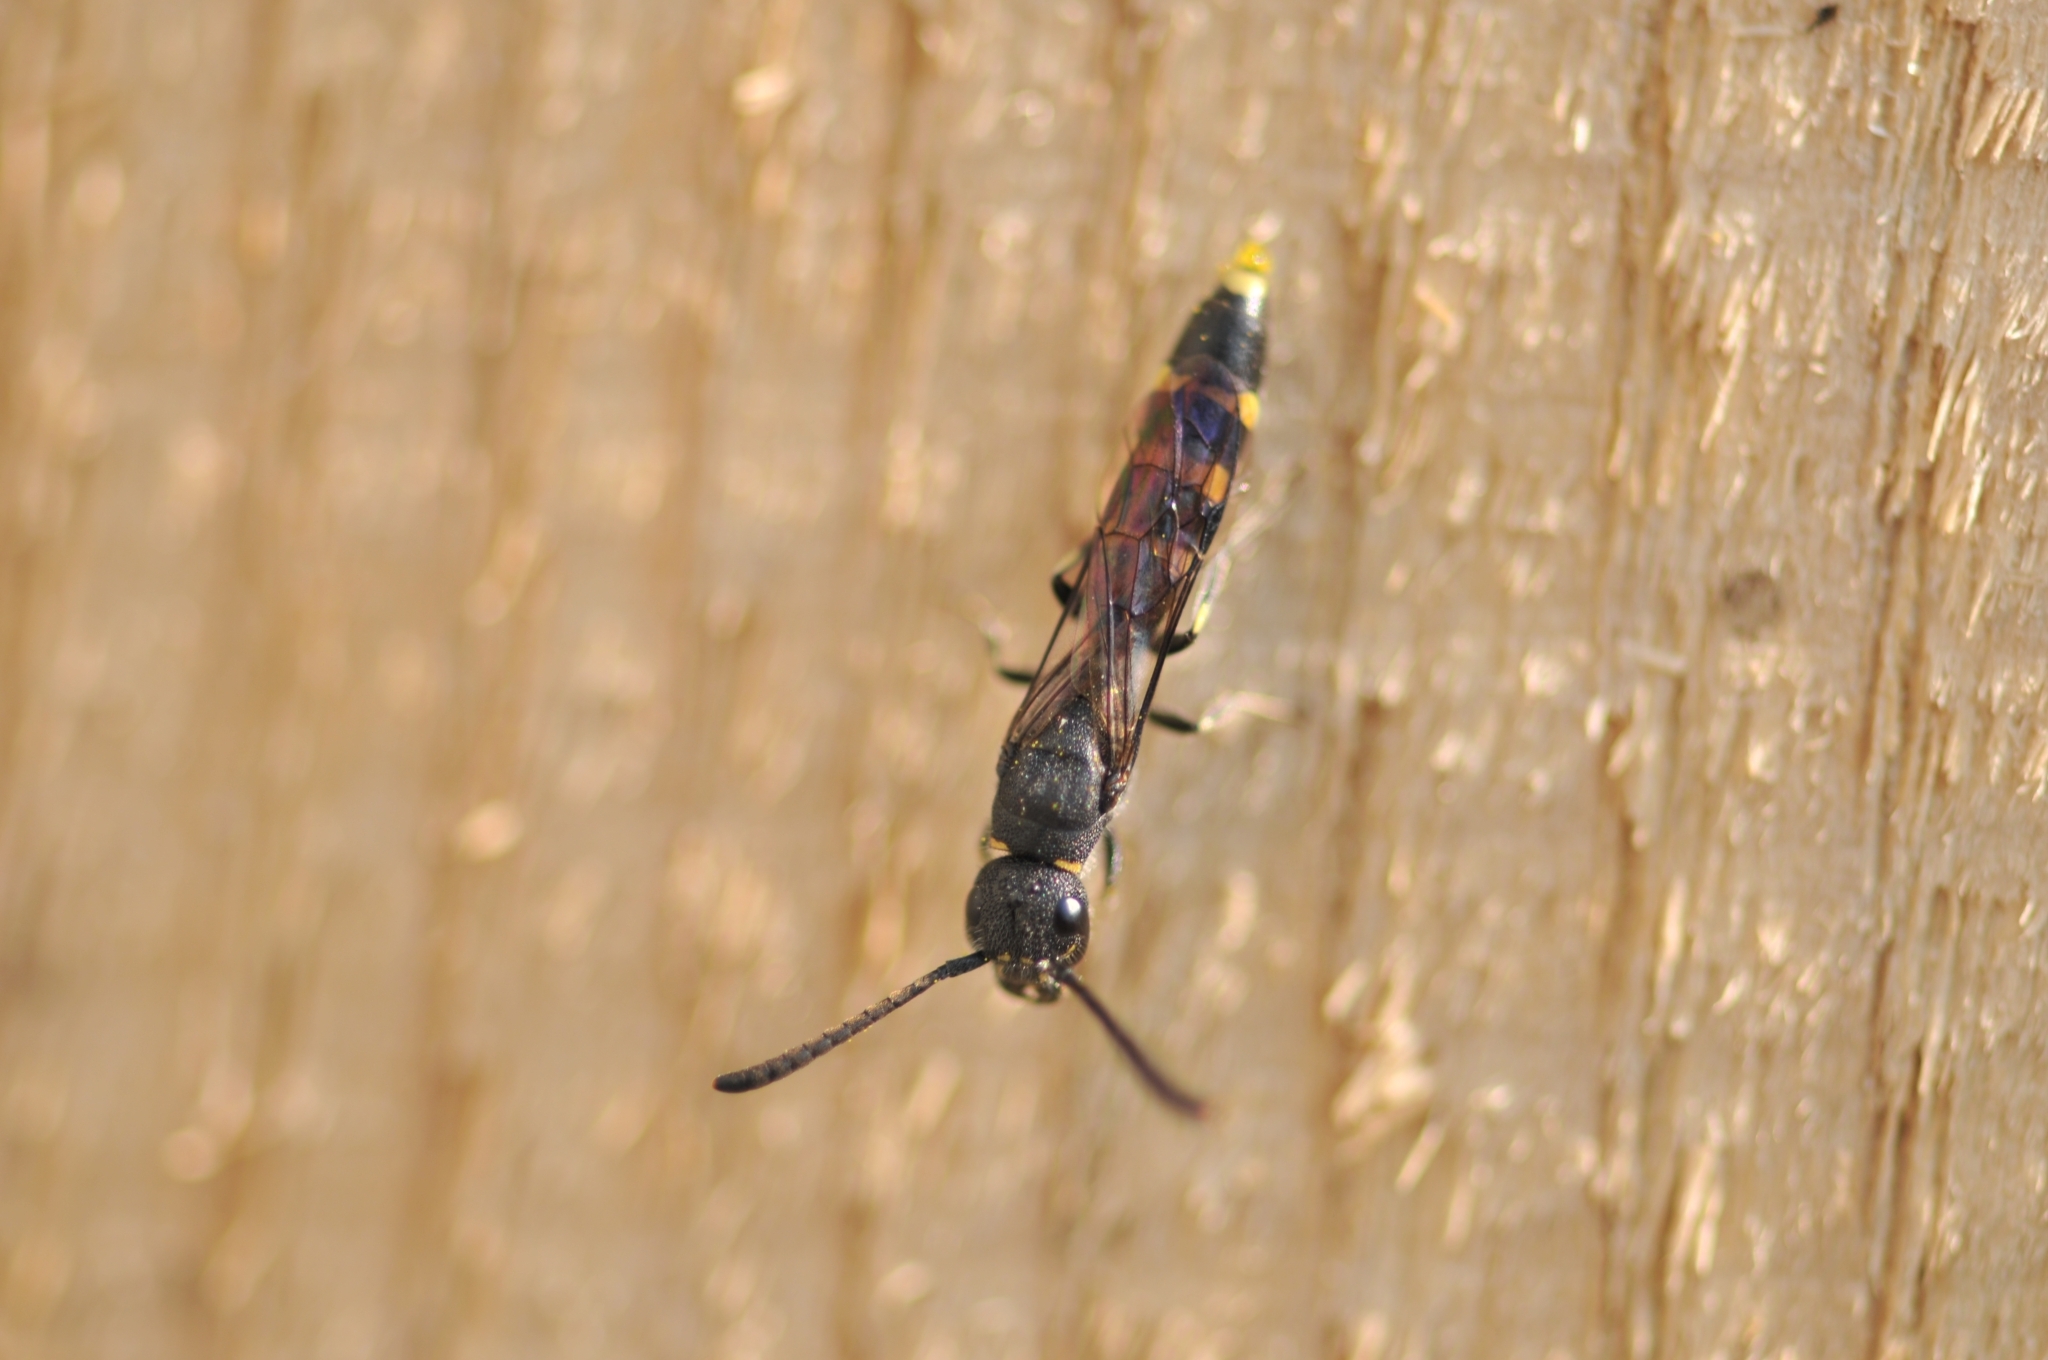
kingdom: Animalia
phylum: Arthropoda
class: Insecta
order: Hymenoptera
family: Sapygidae
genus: Monosapyga
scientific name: Monosapyga clavicornis
